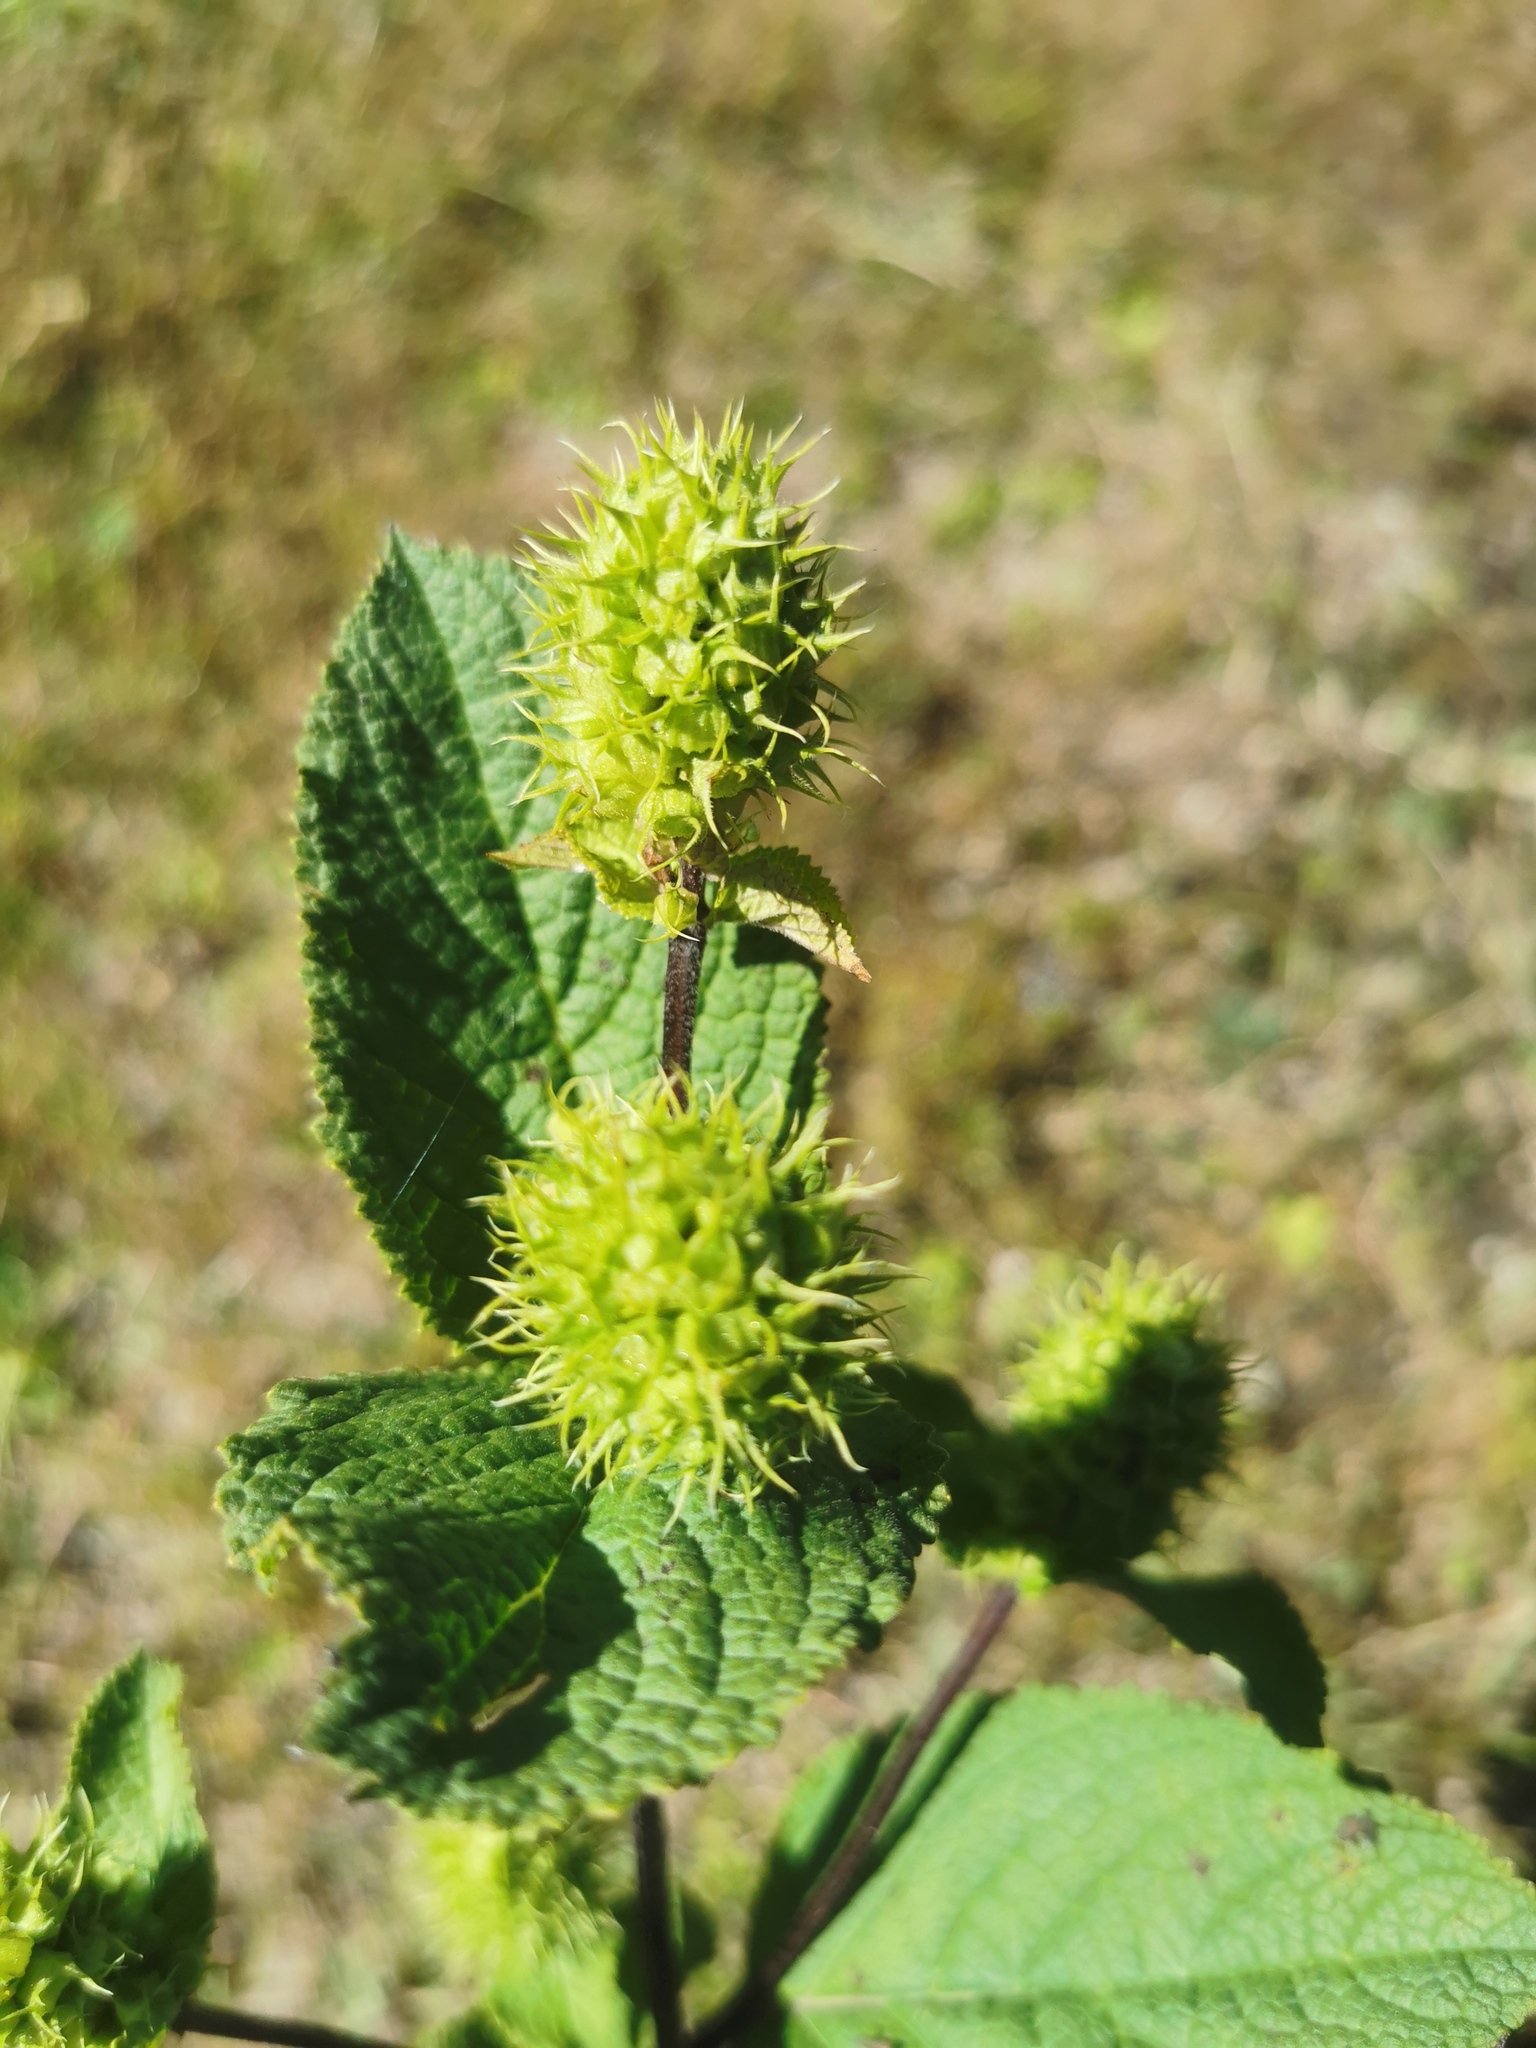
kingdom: Plantae
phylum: Tracheophyta
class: Magnoliopsida
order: Lamiales
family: Lamiaceae
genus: Lepechinia
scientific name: Lepechinia caulescens
